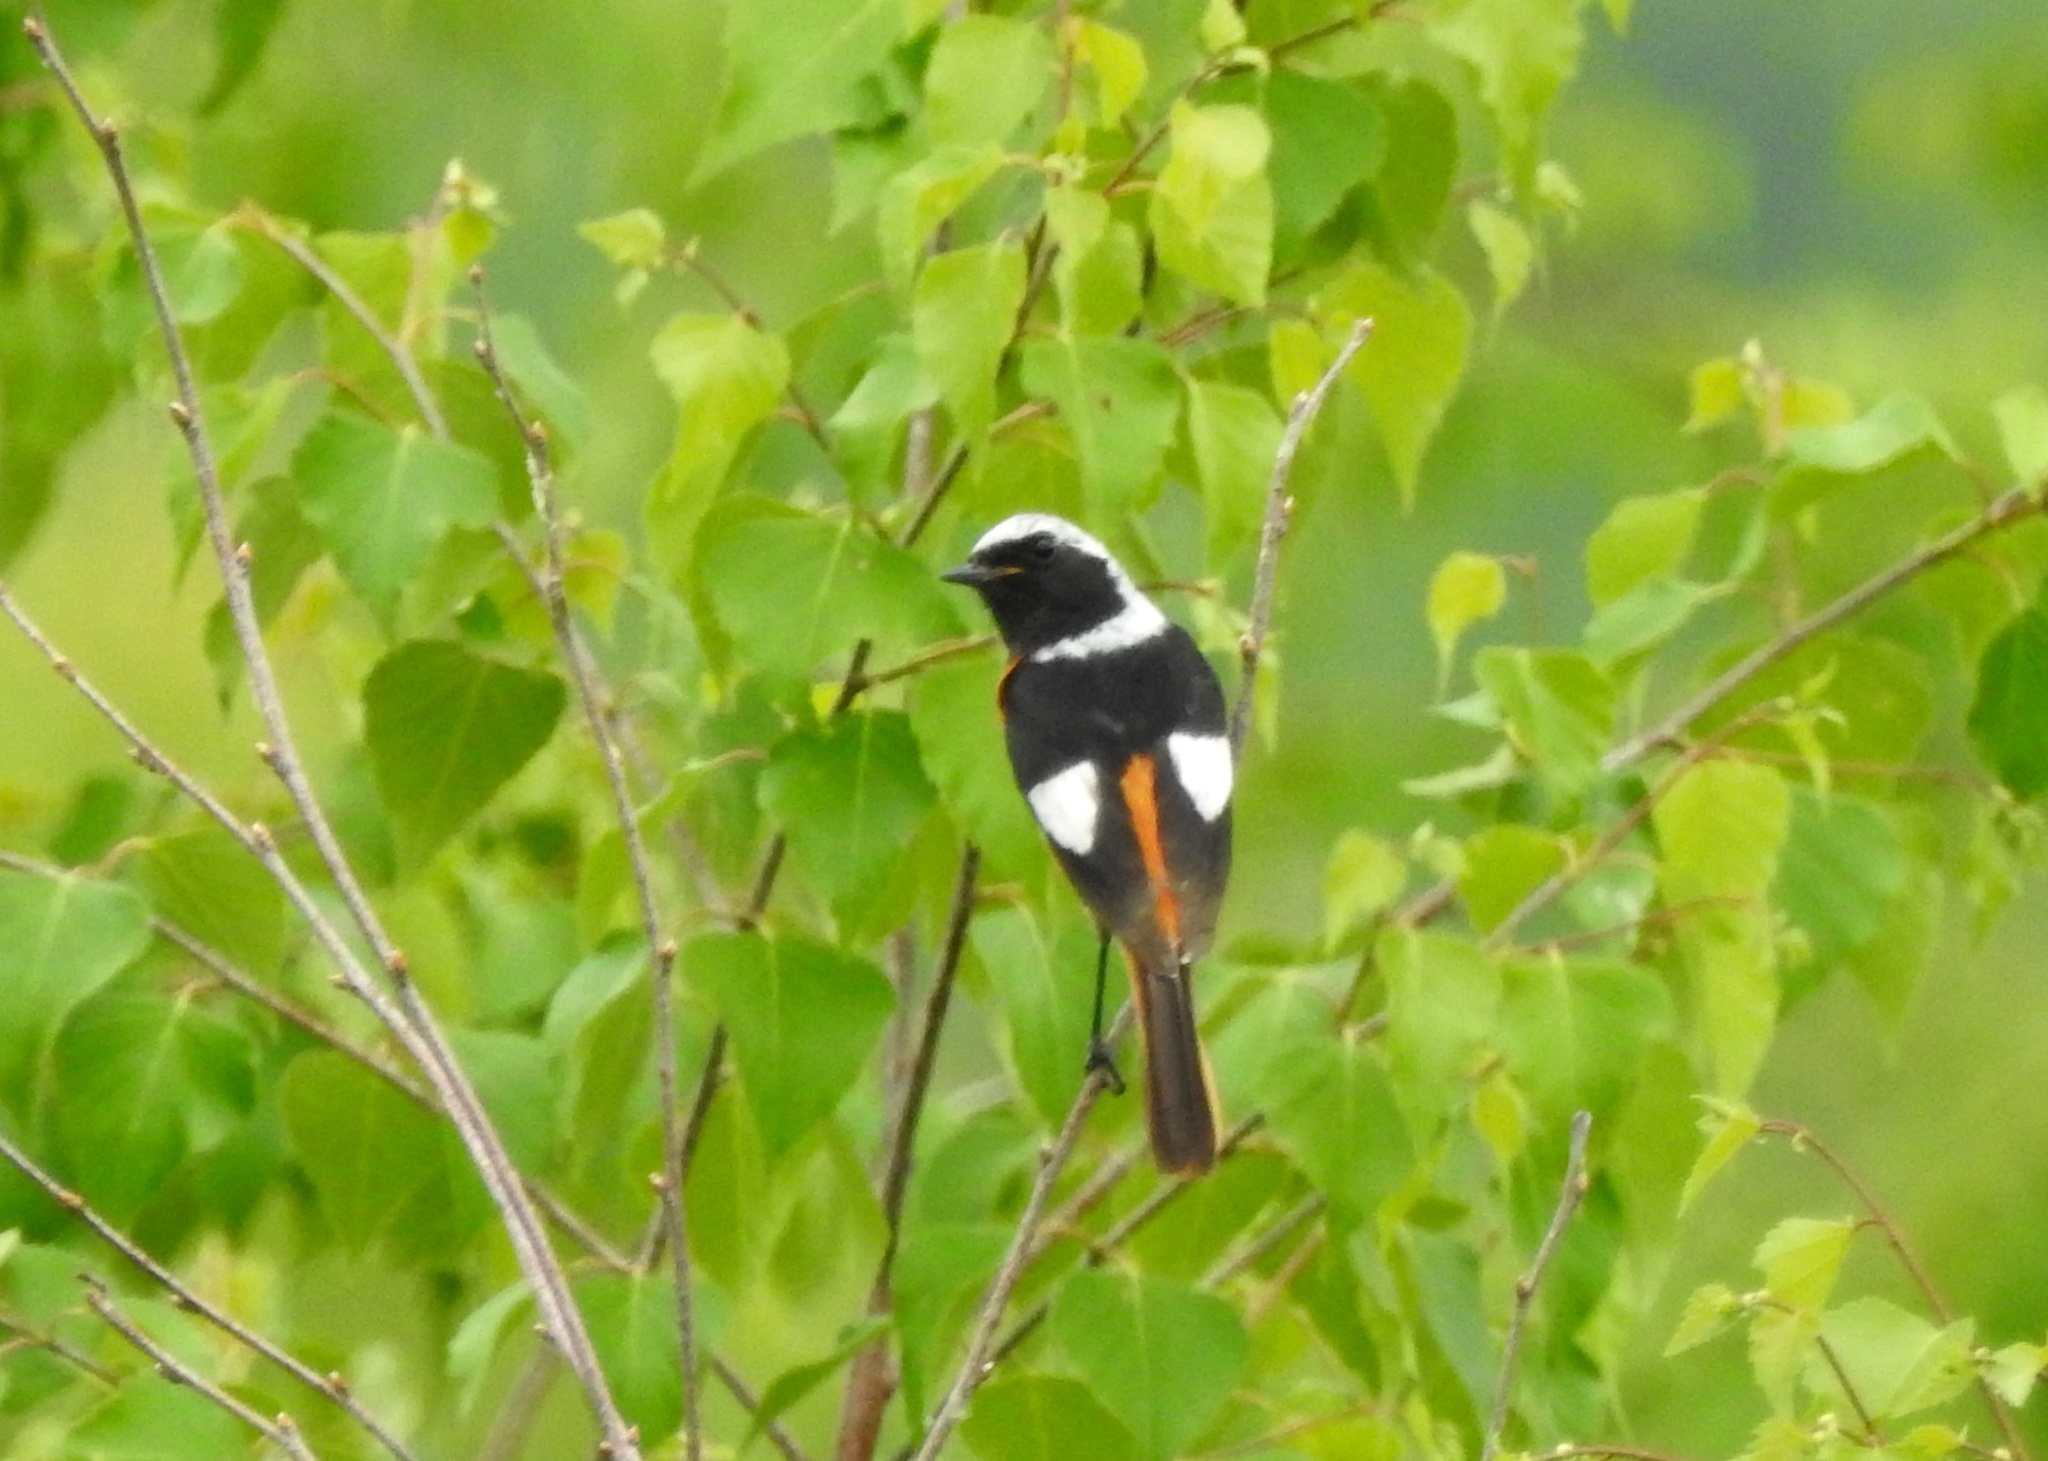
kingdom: Animalia
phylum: Chordata
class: Aves
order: Passeriformes
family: Muscicapidae
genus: Phoenicurus
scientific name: Phoenicurus auroreus
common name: Daurian redstart
